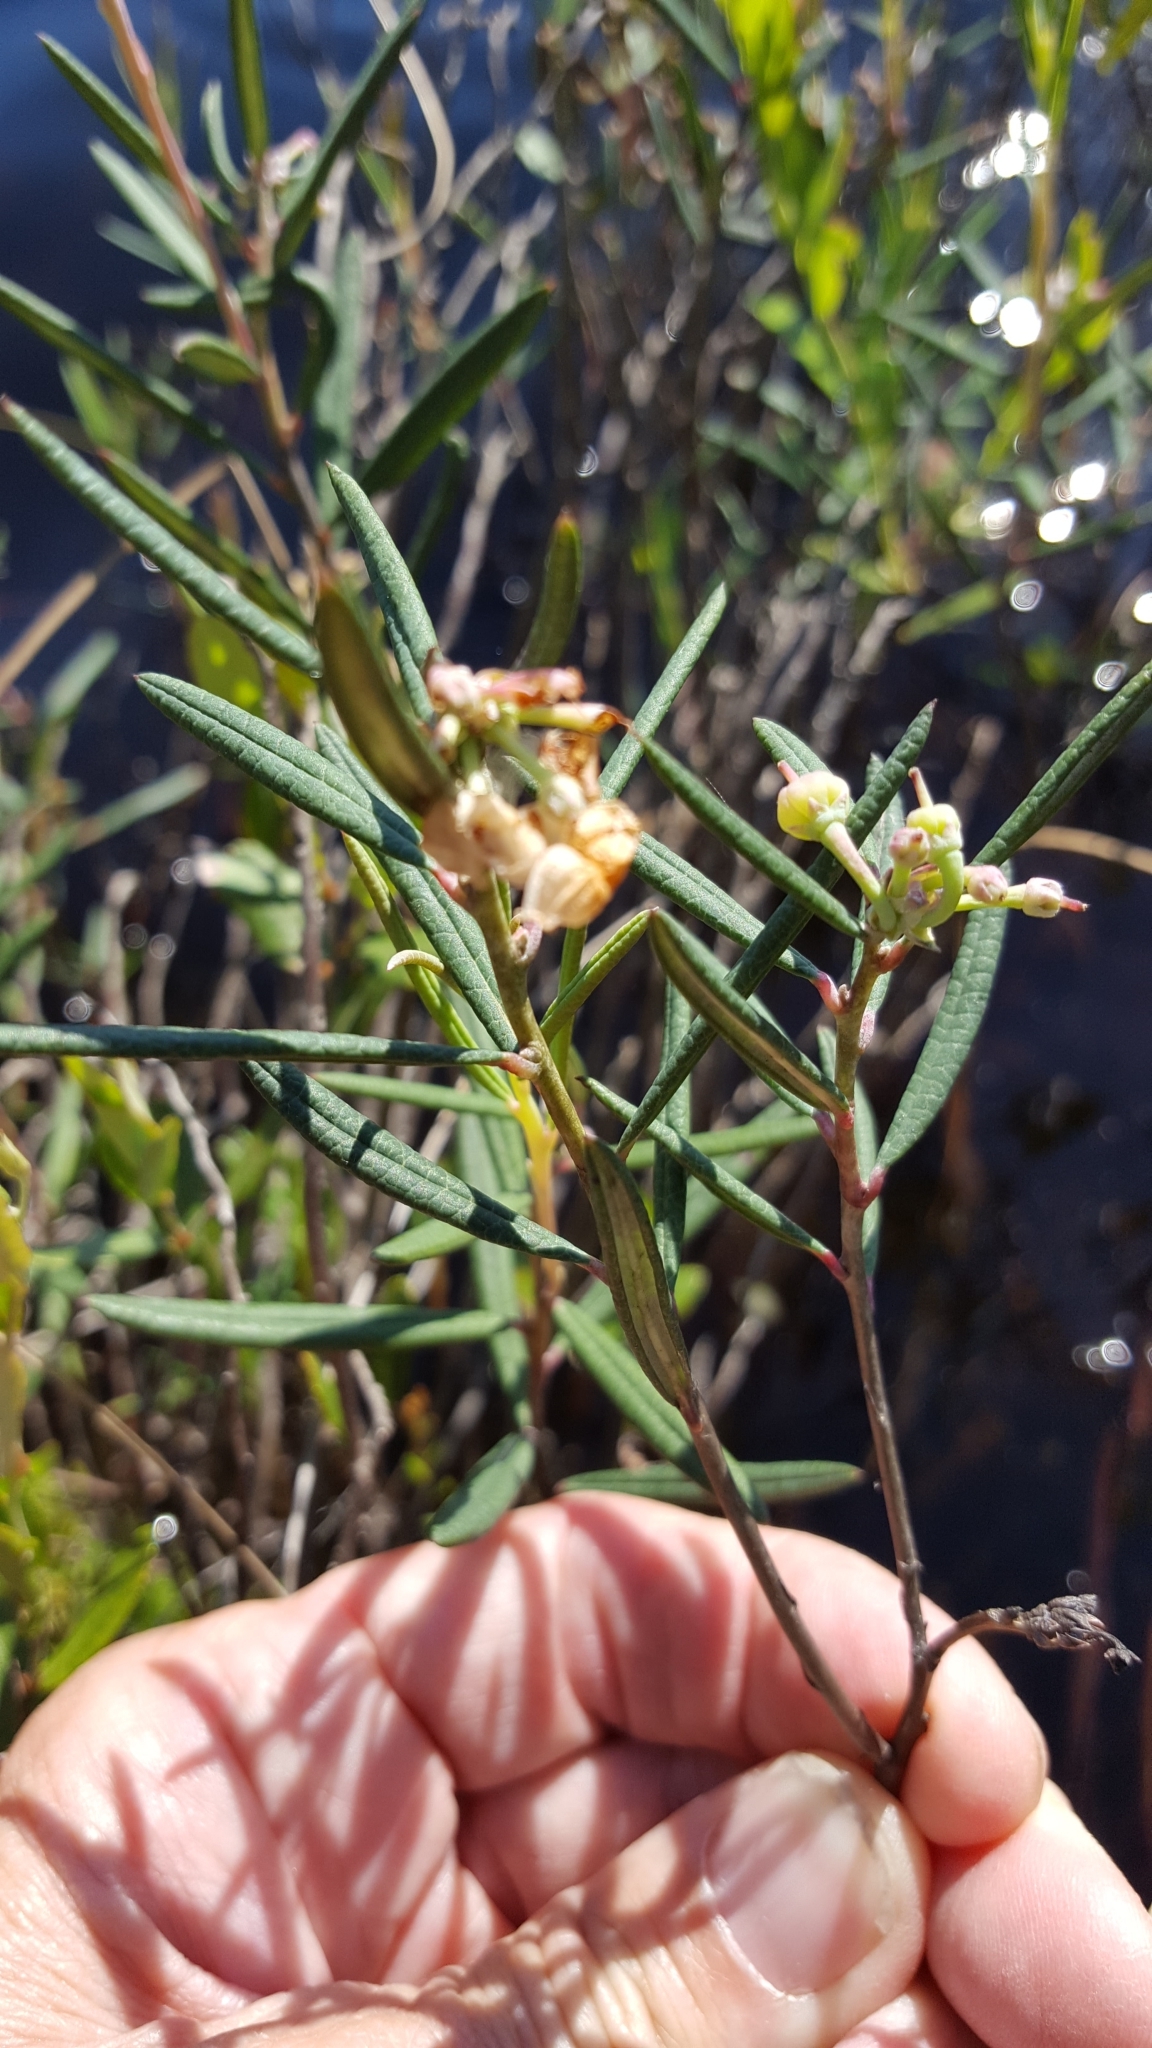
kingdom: Plantae
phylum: Tracheophyta
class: Magnoliopsida
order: Ericales
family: Ericaceae
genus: Andromeda
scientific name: Andromeda polifolia
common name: Bog-rosemary
